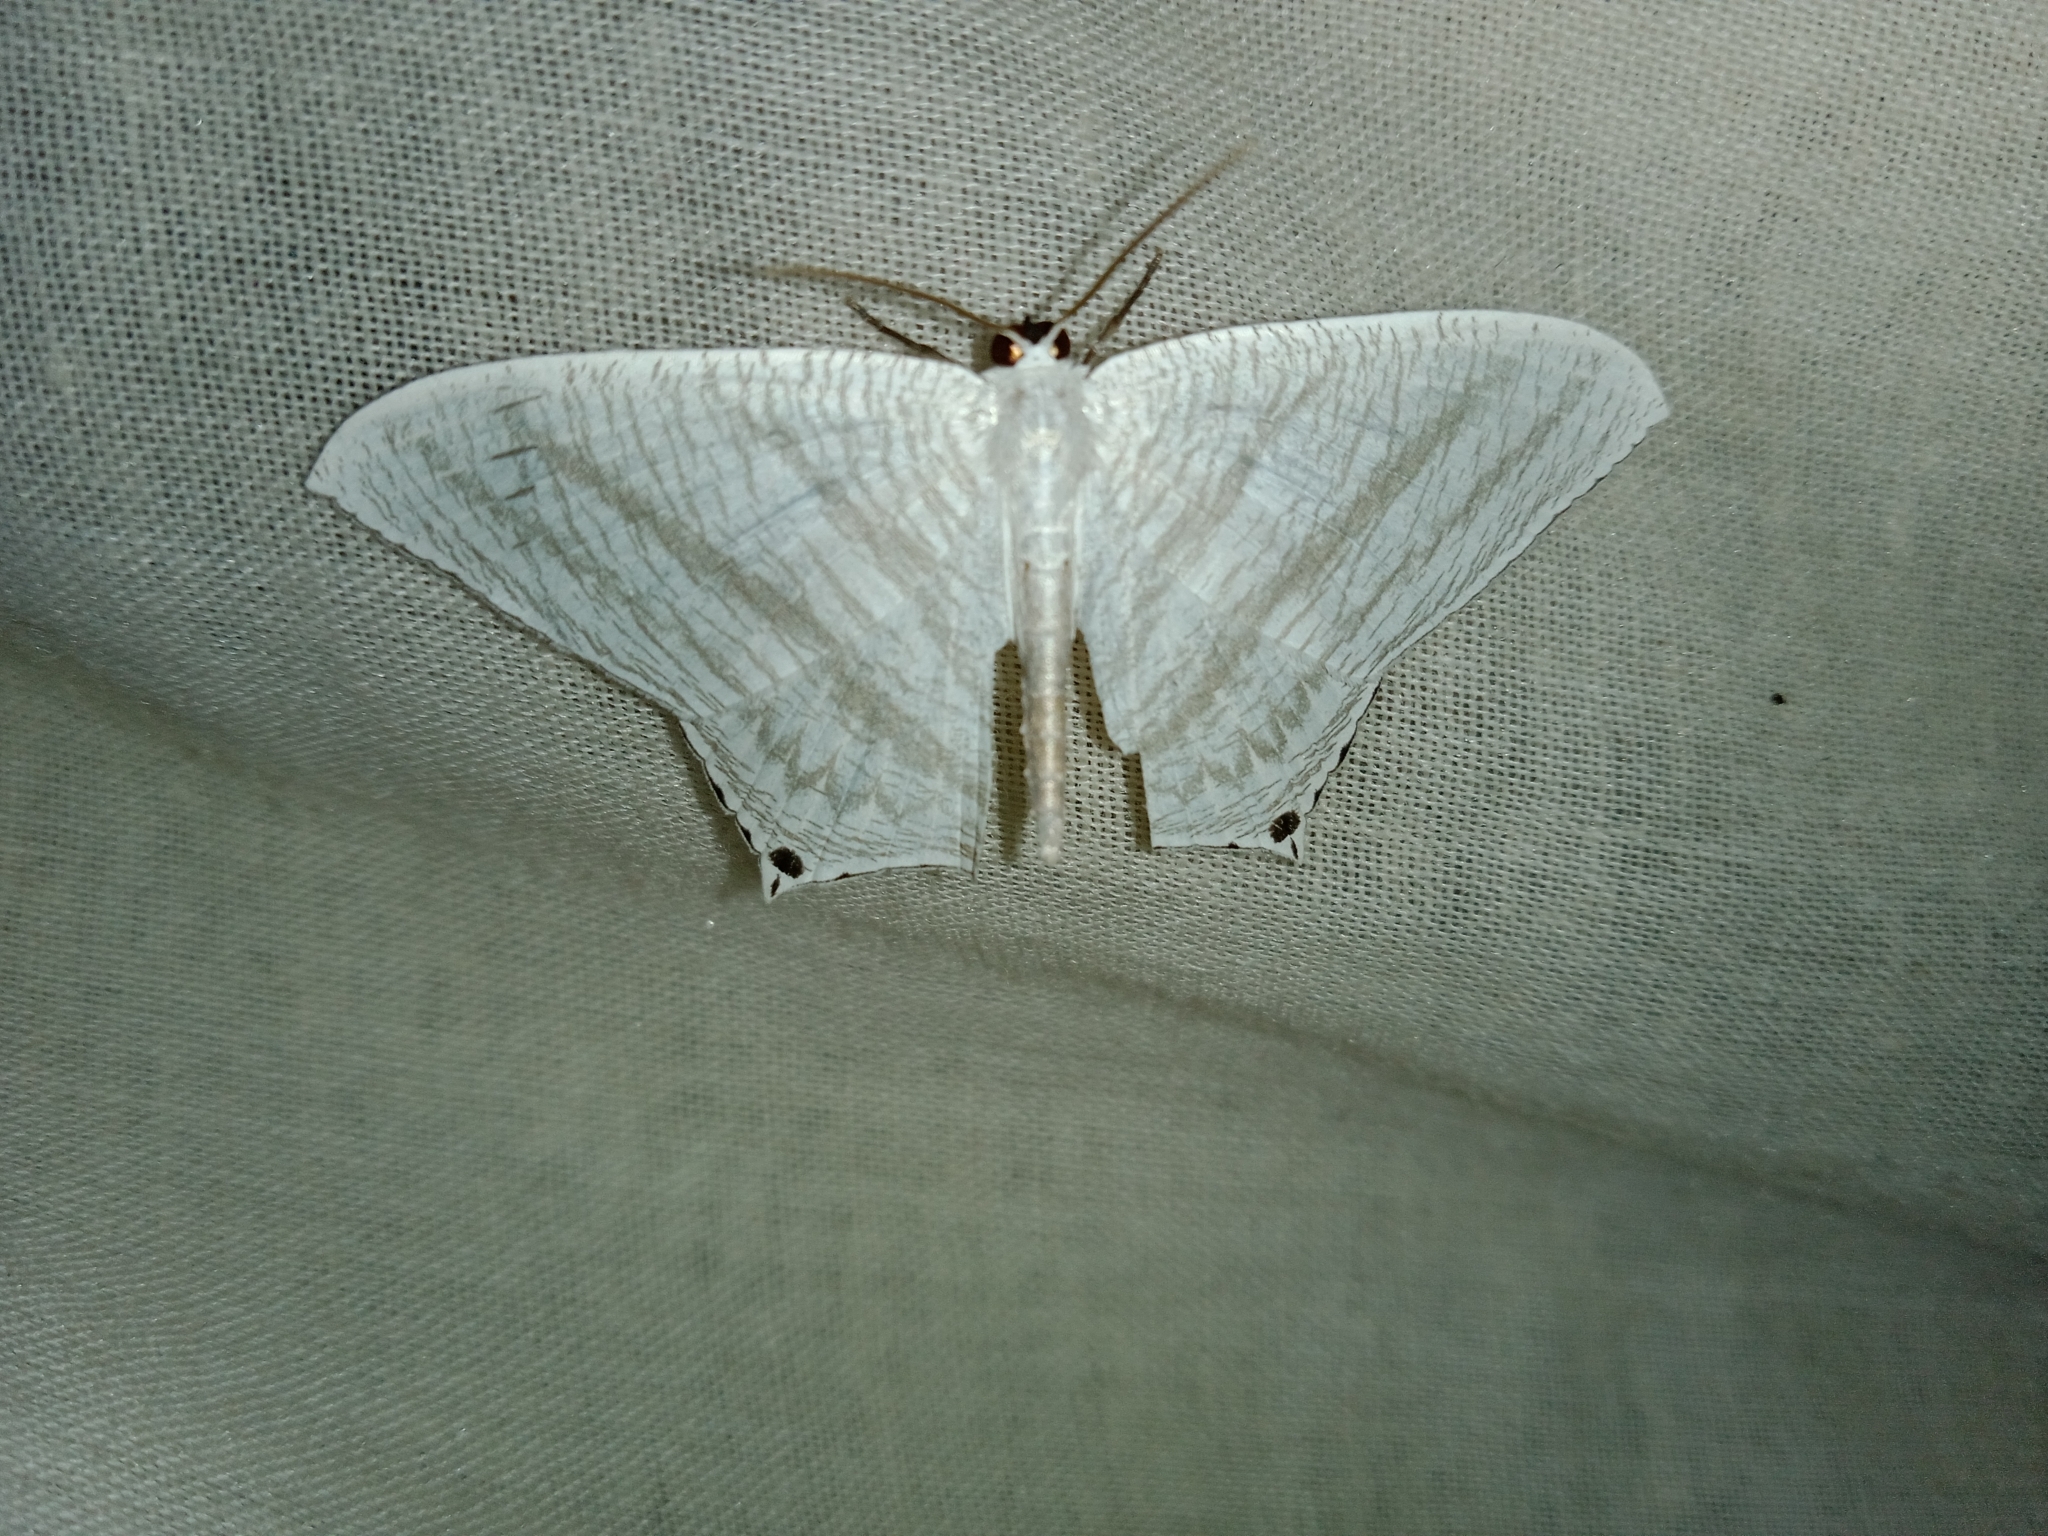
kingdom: Animalia
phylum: Arthropoda
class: Insecta
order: Lepidoptera
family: Uraniidae
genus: Micronia
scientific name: Micronia aculeata
